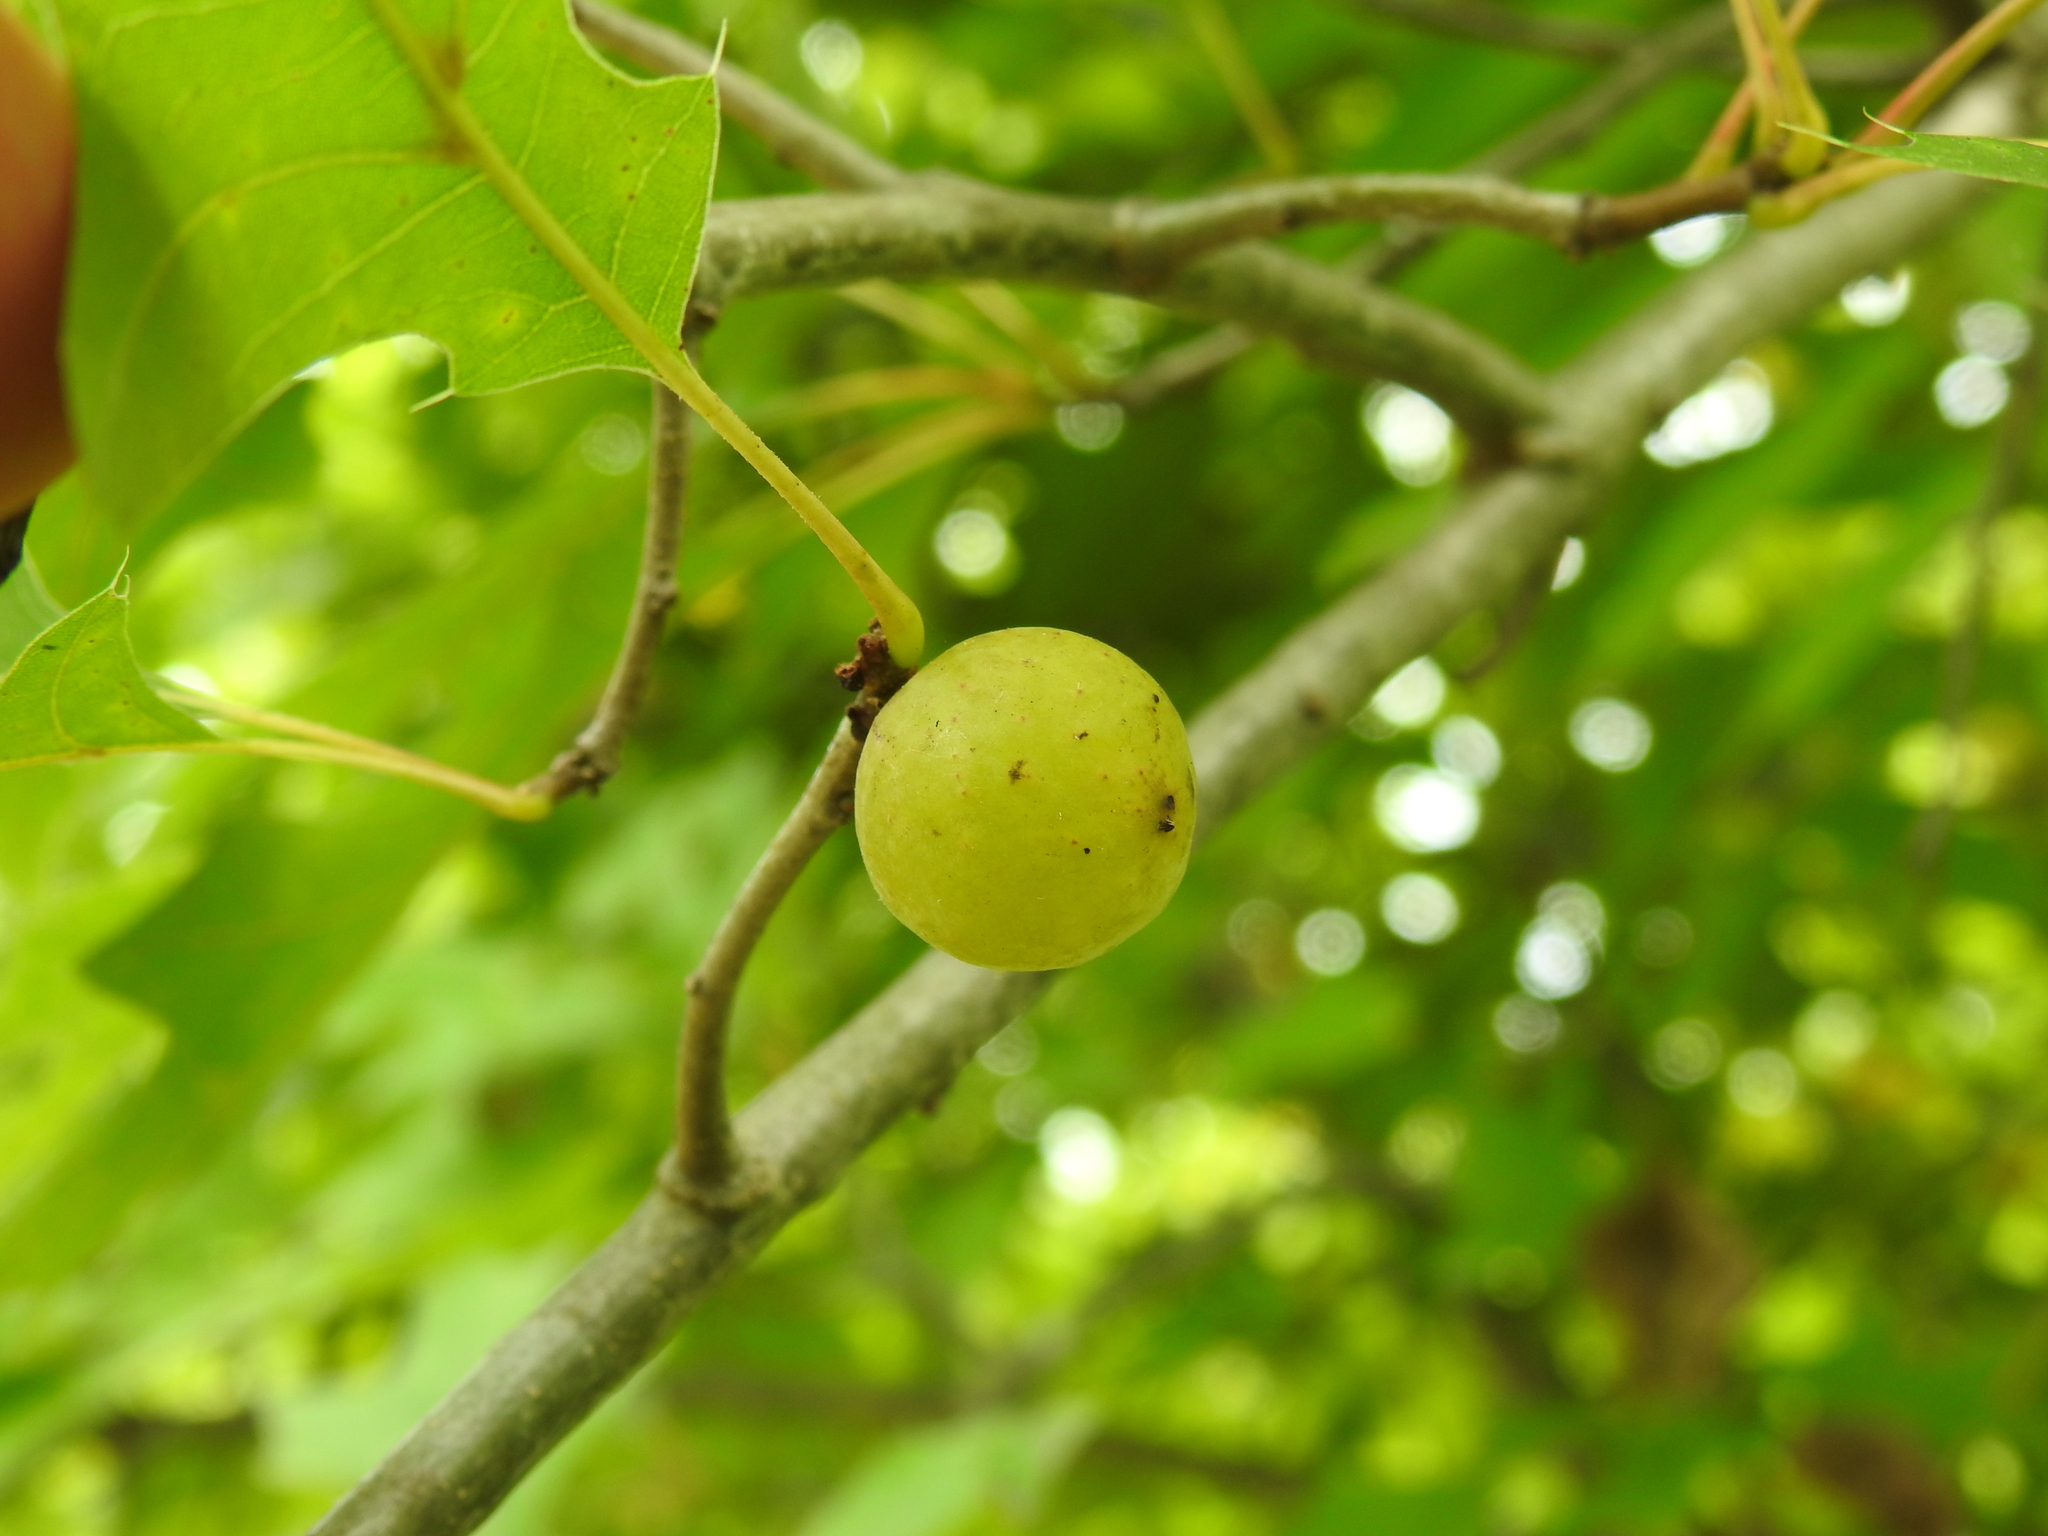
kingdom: Animalia
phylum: Arthropoda
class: Insecta
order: Hymenoptera
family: Cynipidae
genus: Amphibolips
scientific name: Amphibolips
